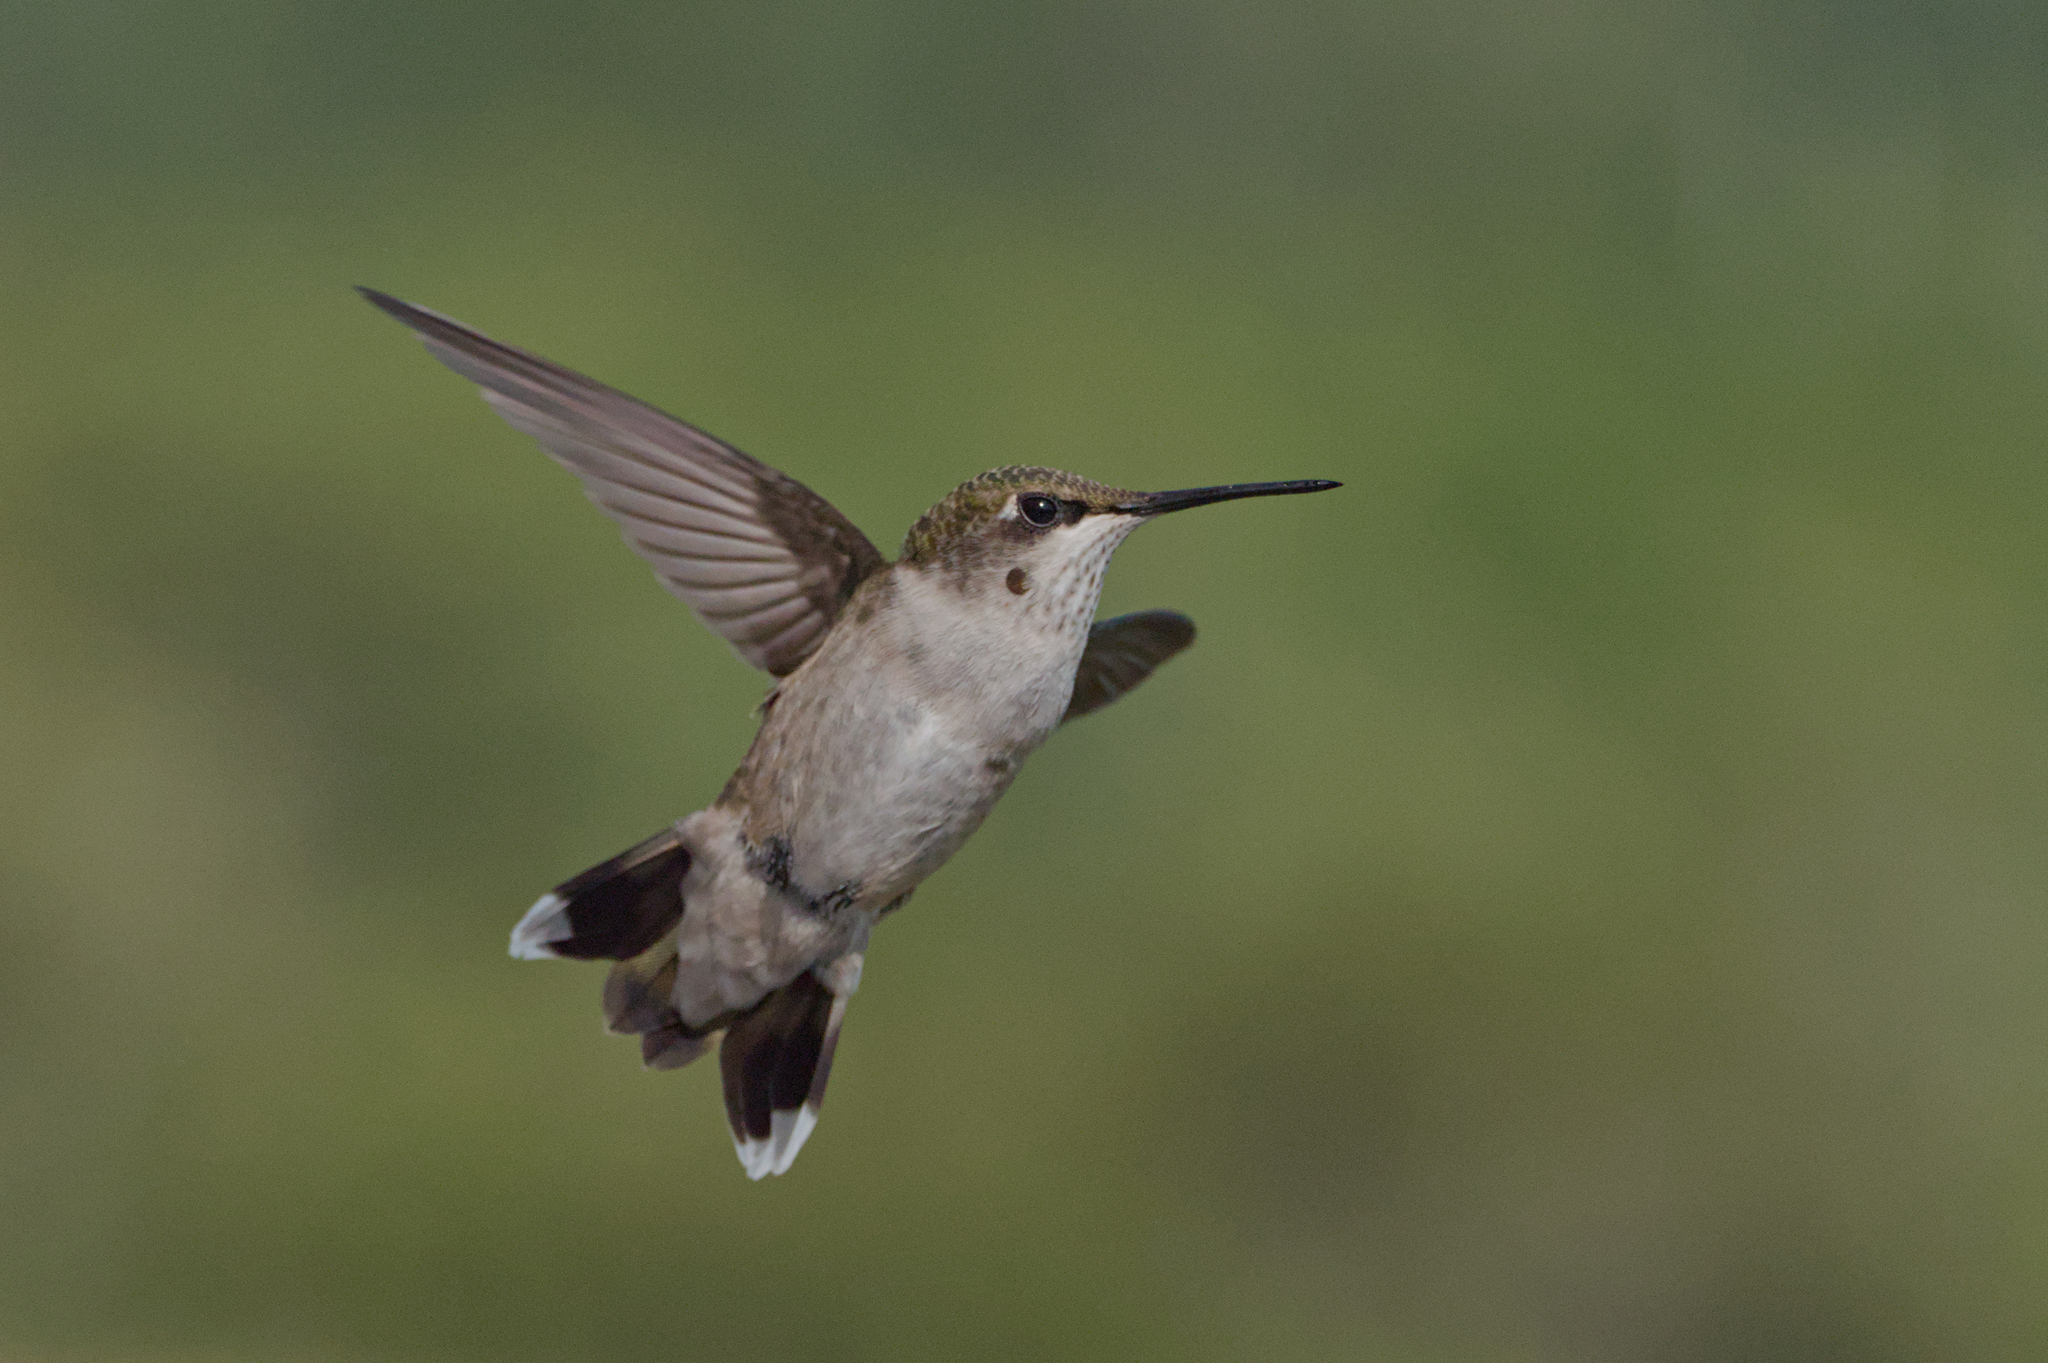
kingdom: Animalia
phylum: Chordata
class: Aves
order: Apodiformes
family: Trochilidae
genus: Archilochus
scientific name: Archilochus colubris
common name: Ruby-throated hummingbird
